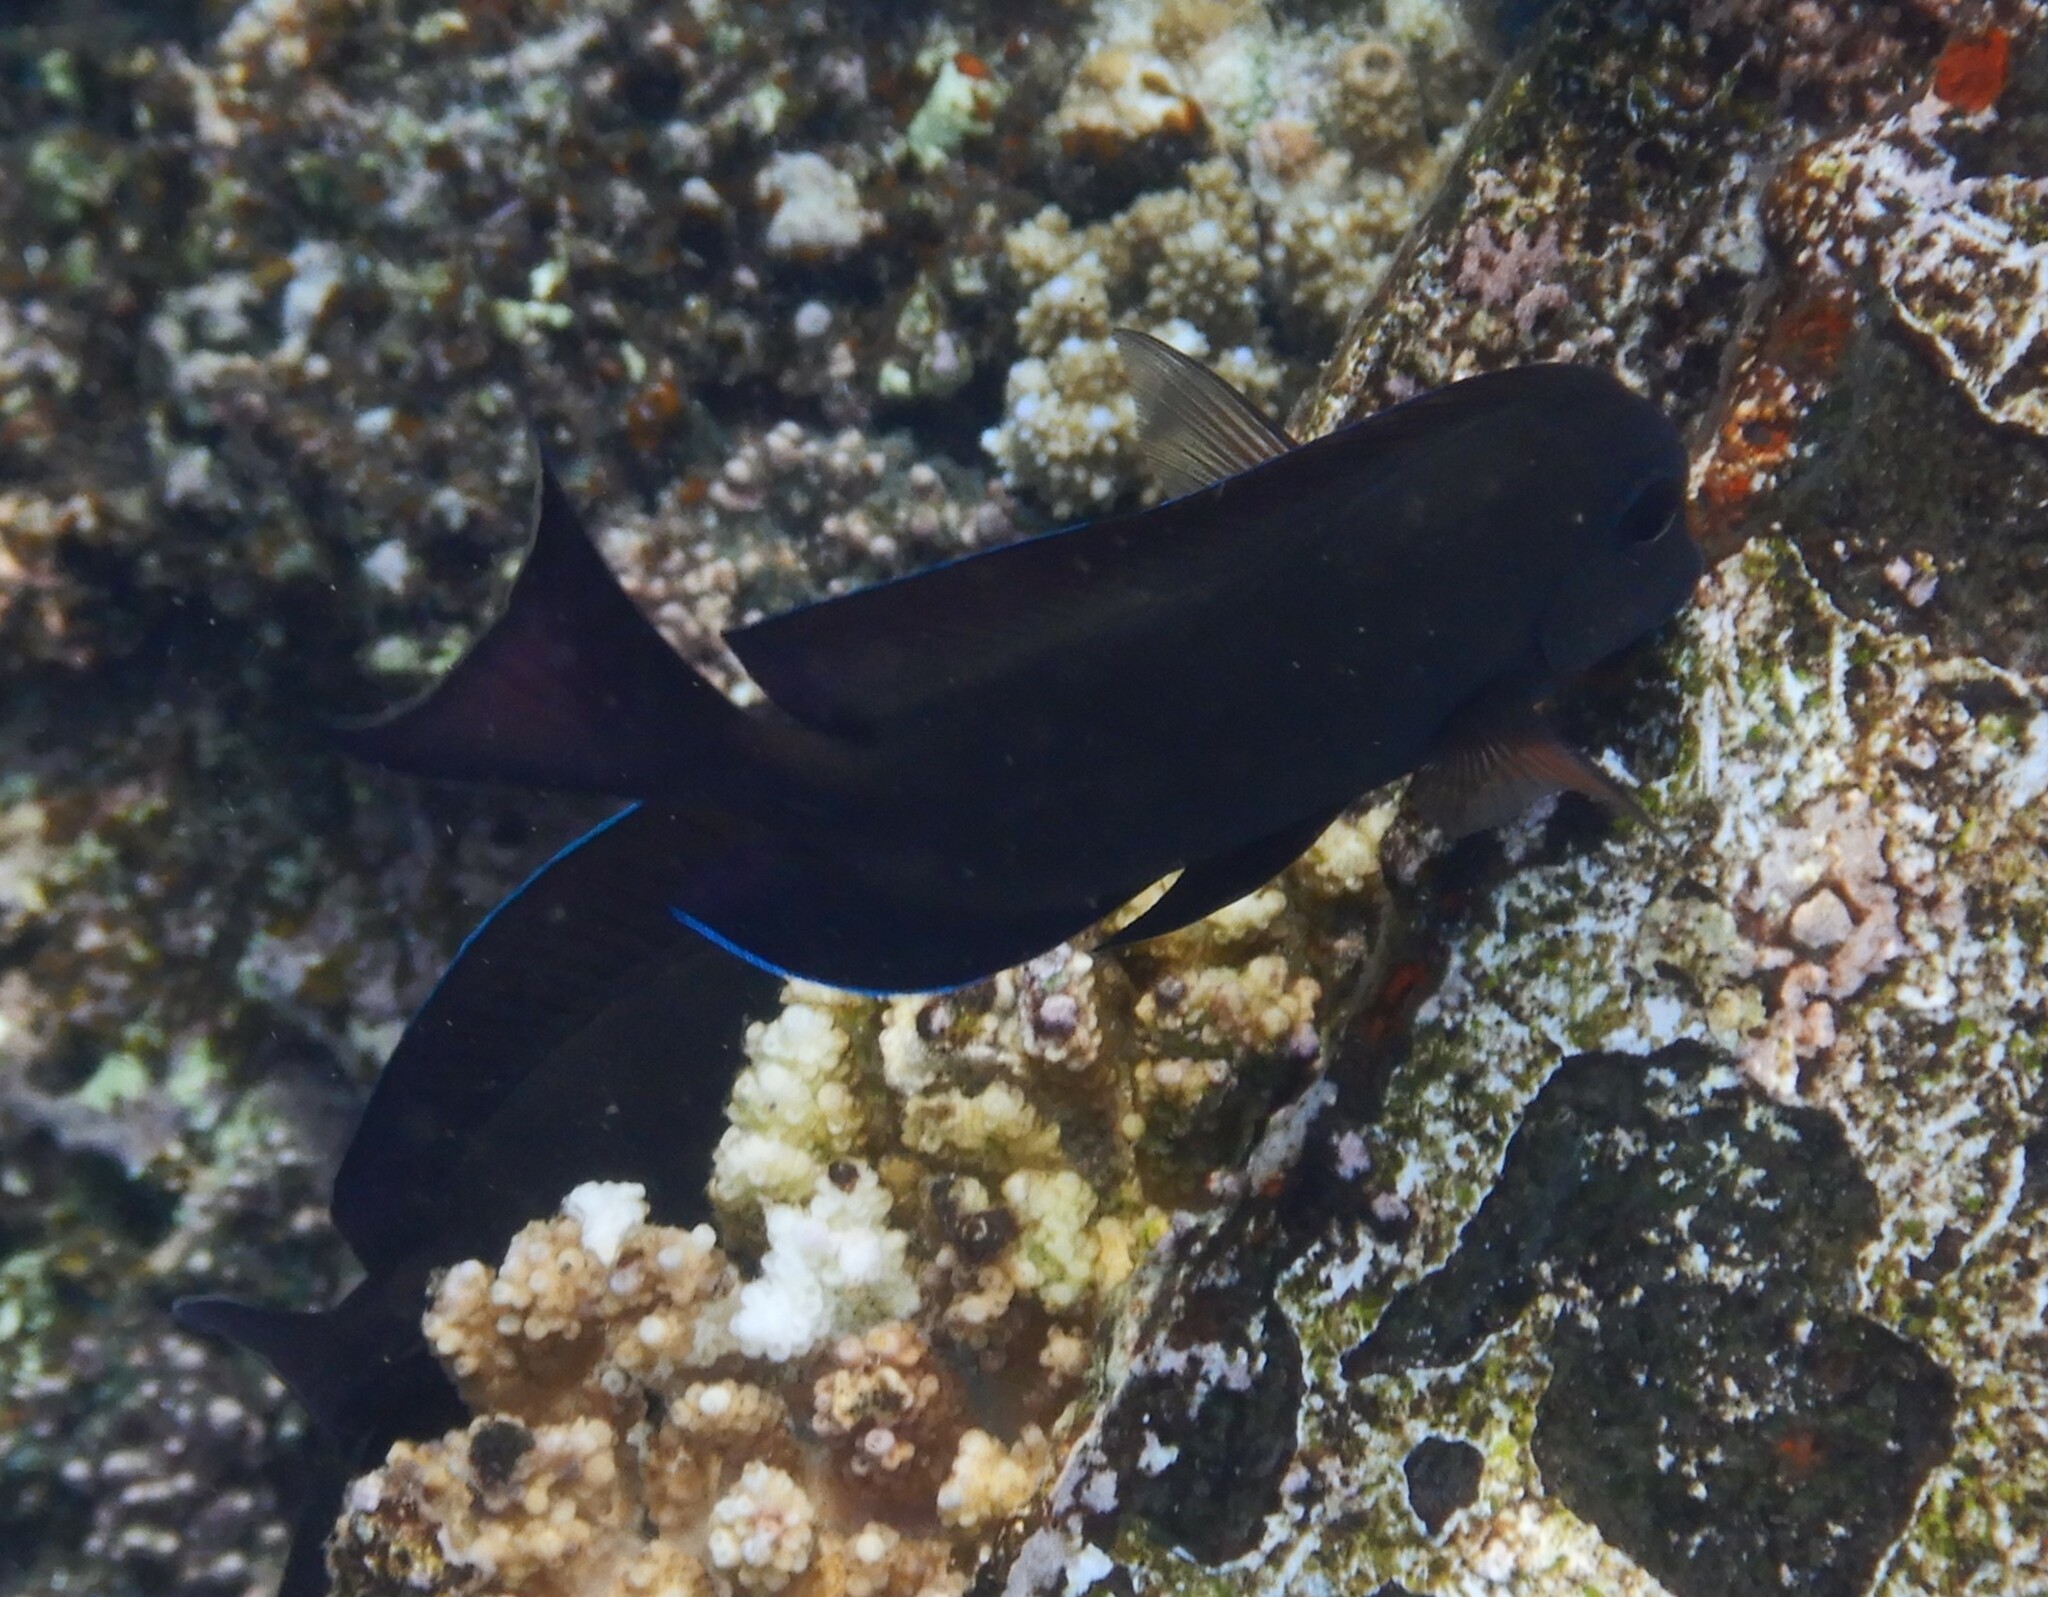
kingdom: Animalia
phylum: Chordata
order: Perciformes
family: Acanthuridae
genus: Acanthurus
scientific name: Acanthurus nigrofuscus
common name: Blackspot surgeonfish
